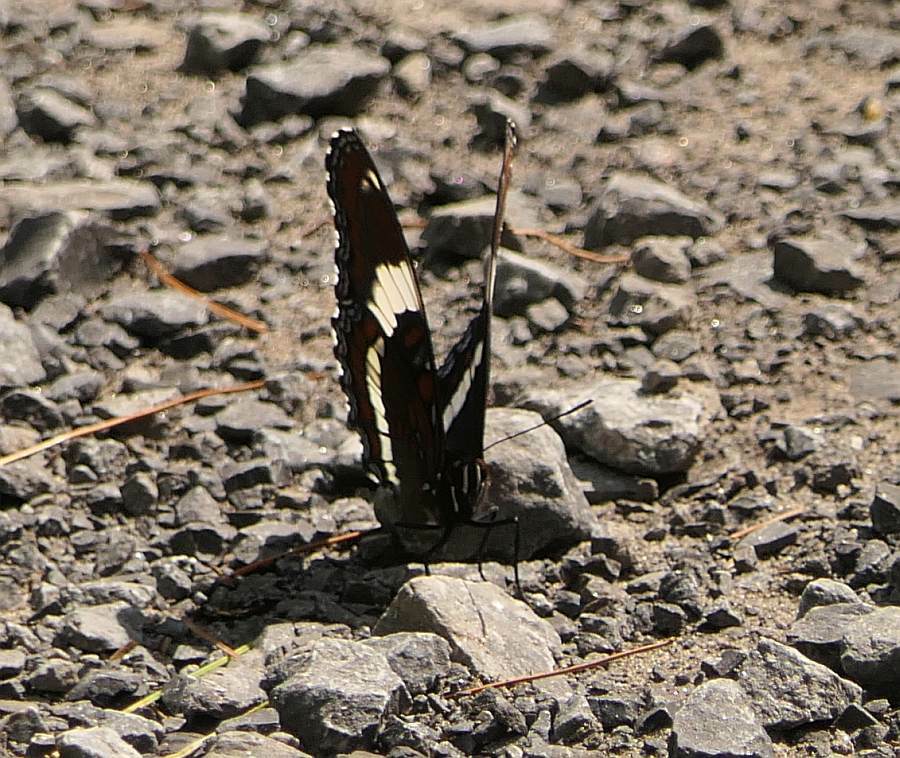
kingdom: Animalia
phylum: Arthropoda
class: Insecta
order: Lepidoptera
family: Nymphalidae
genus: Limenitis
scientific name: Limenitis arthemis
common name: Red-spotted admiral
